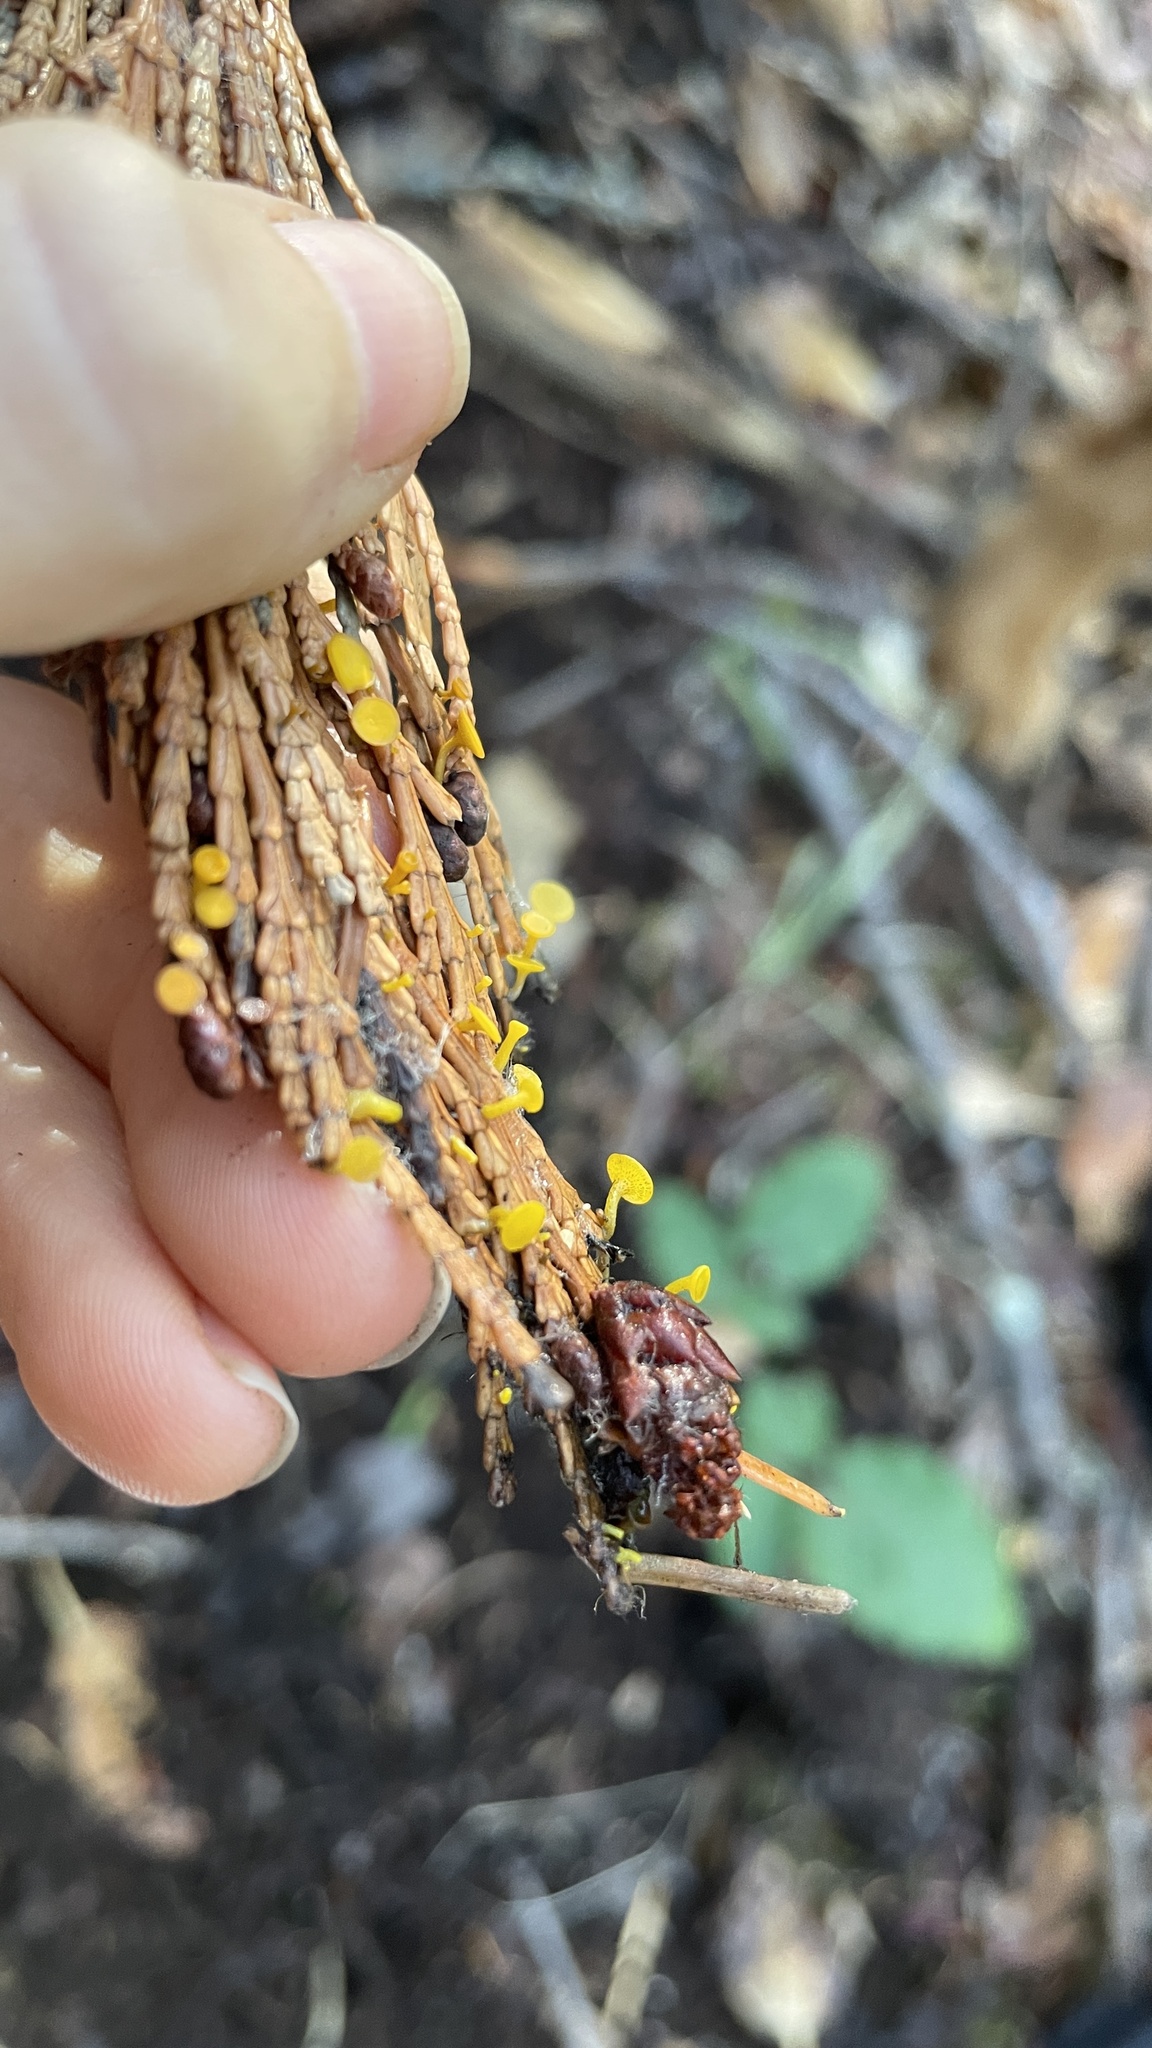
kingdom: Fungi
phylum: Ascomycota
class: Leotiomycetes
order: Helotiales
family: Gelatinodiscaceae
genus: Chloroscypha
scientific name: Chloroscypha alutipes
